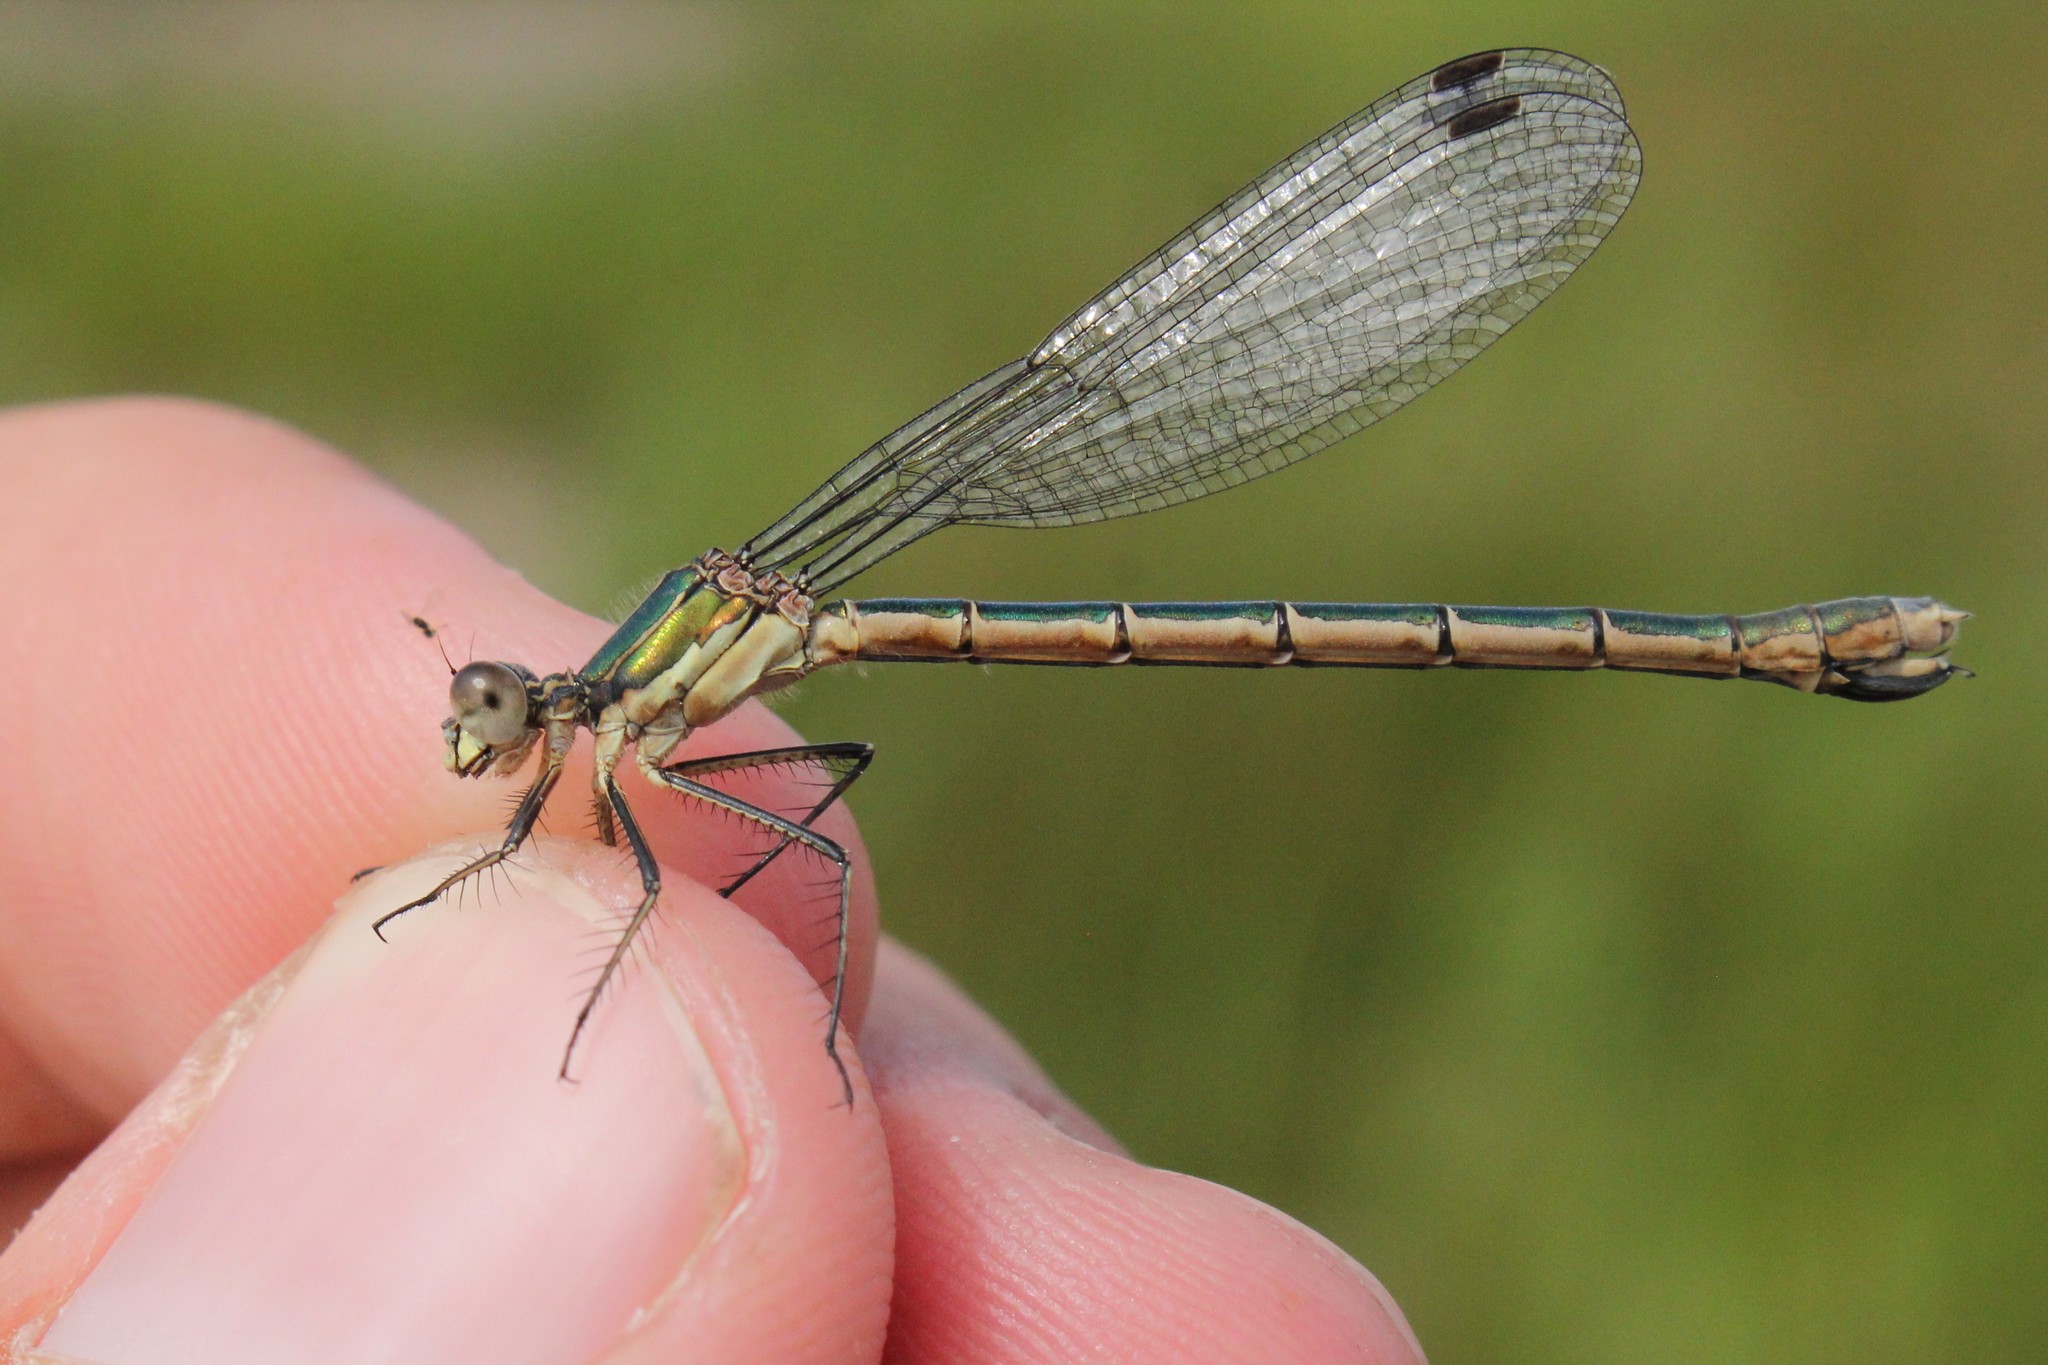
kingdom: Animalia
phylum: Arthropoda
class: Insecta
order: Odonata
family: Lestidae
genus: Lestes
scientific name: Lestes dryas
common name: Scarce emerald damselfly
